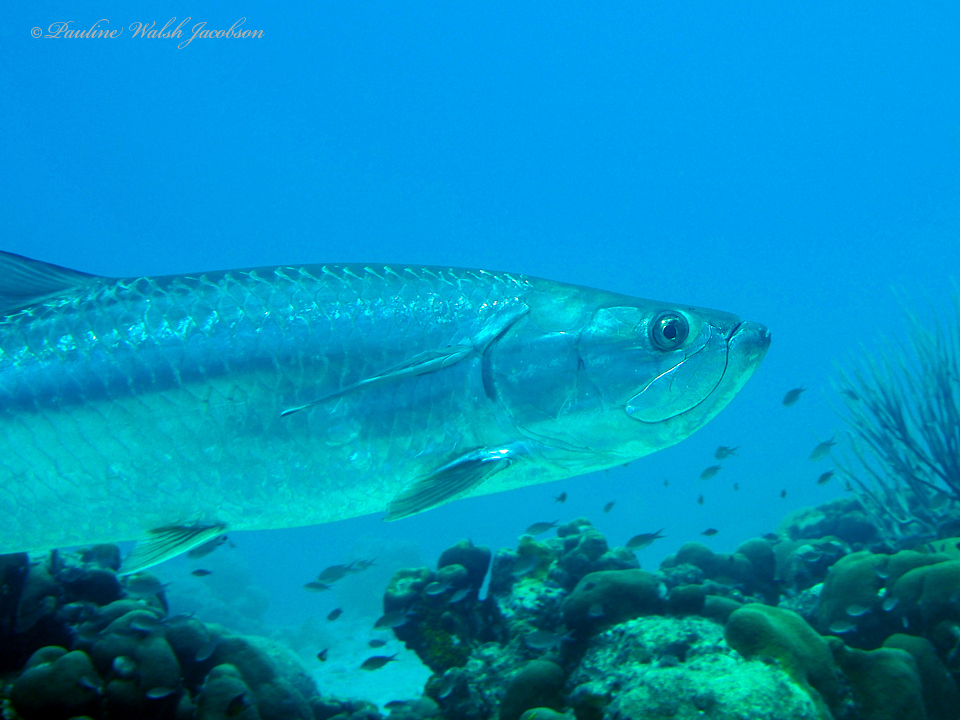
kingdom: Animalia
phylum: Chordata
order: Elopiformes
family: Megalopidae
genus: Megalops
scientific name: Megalops atlanticus
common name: Tarpon
